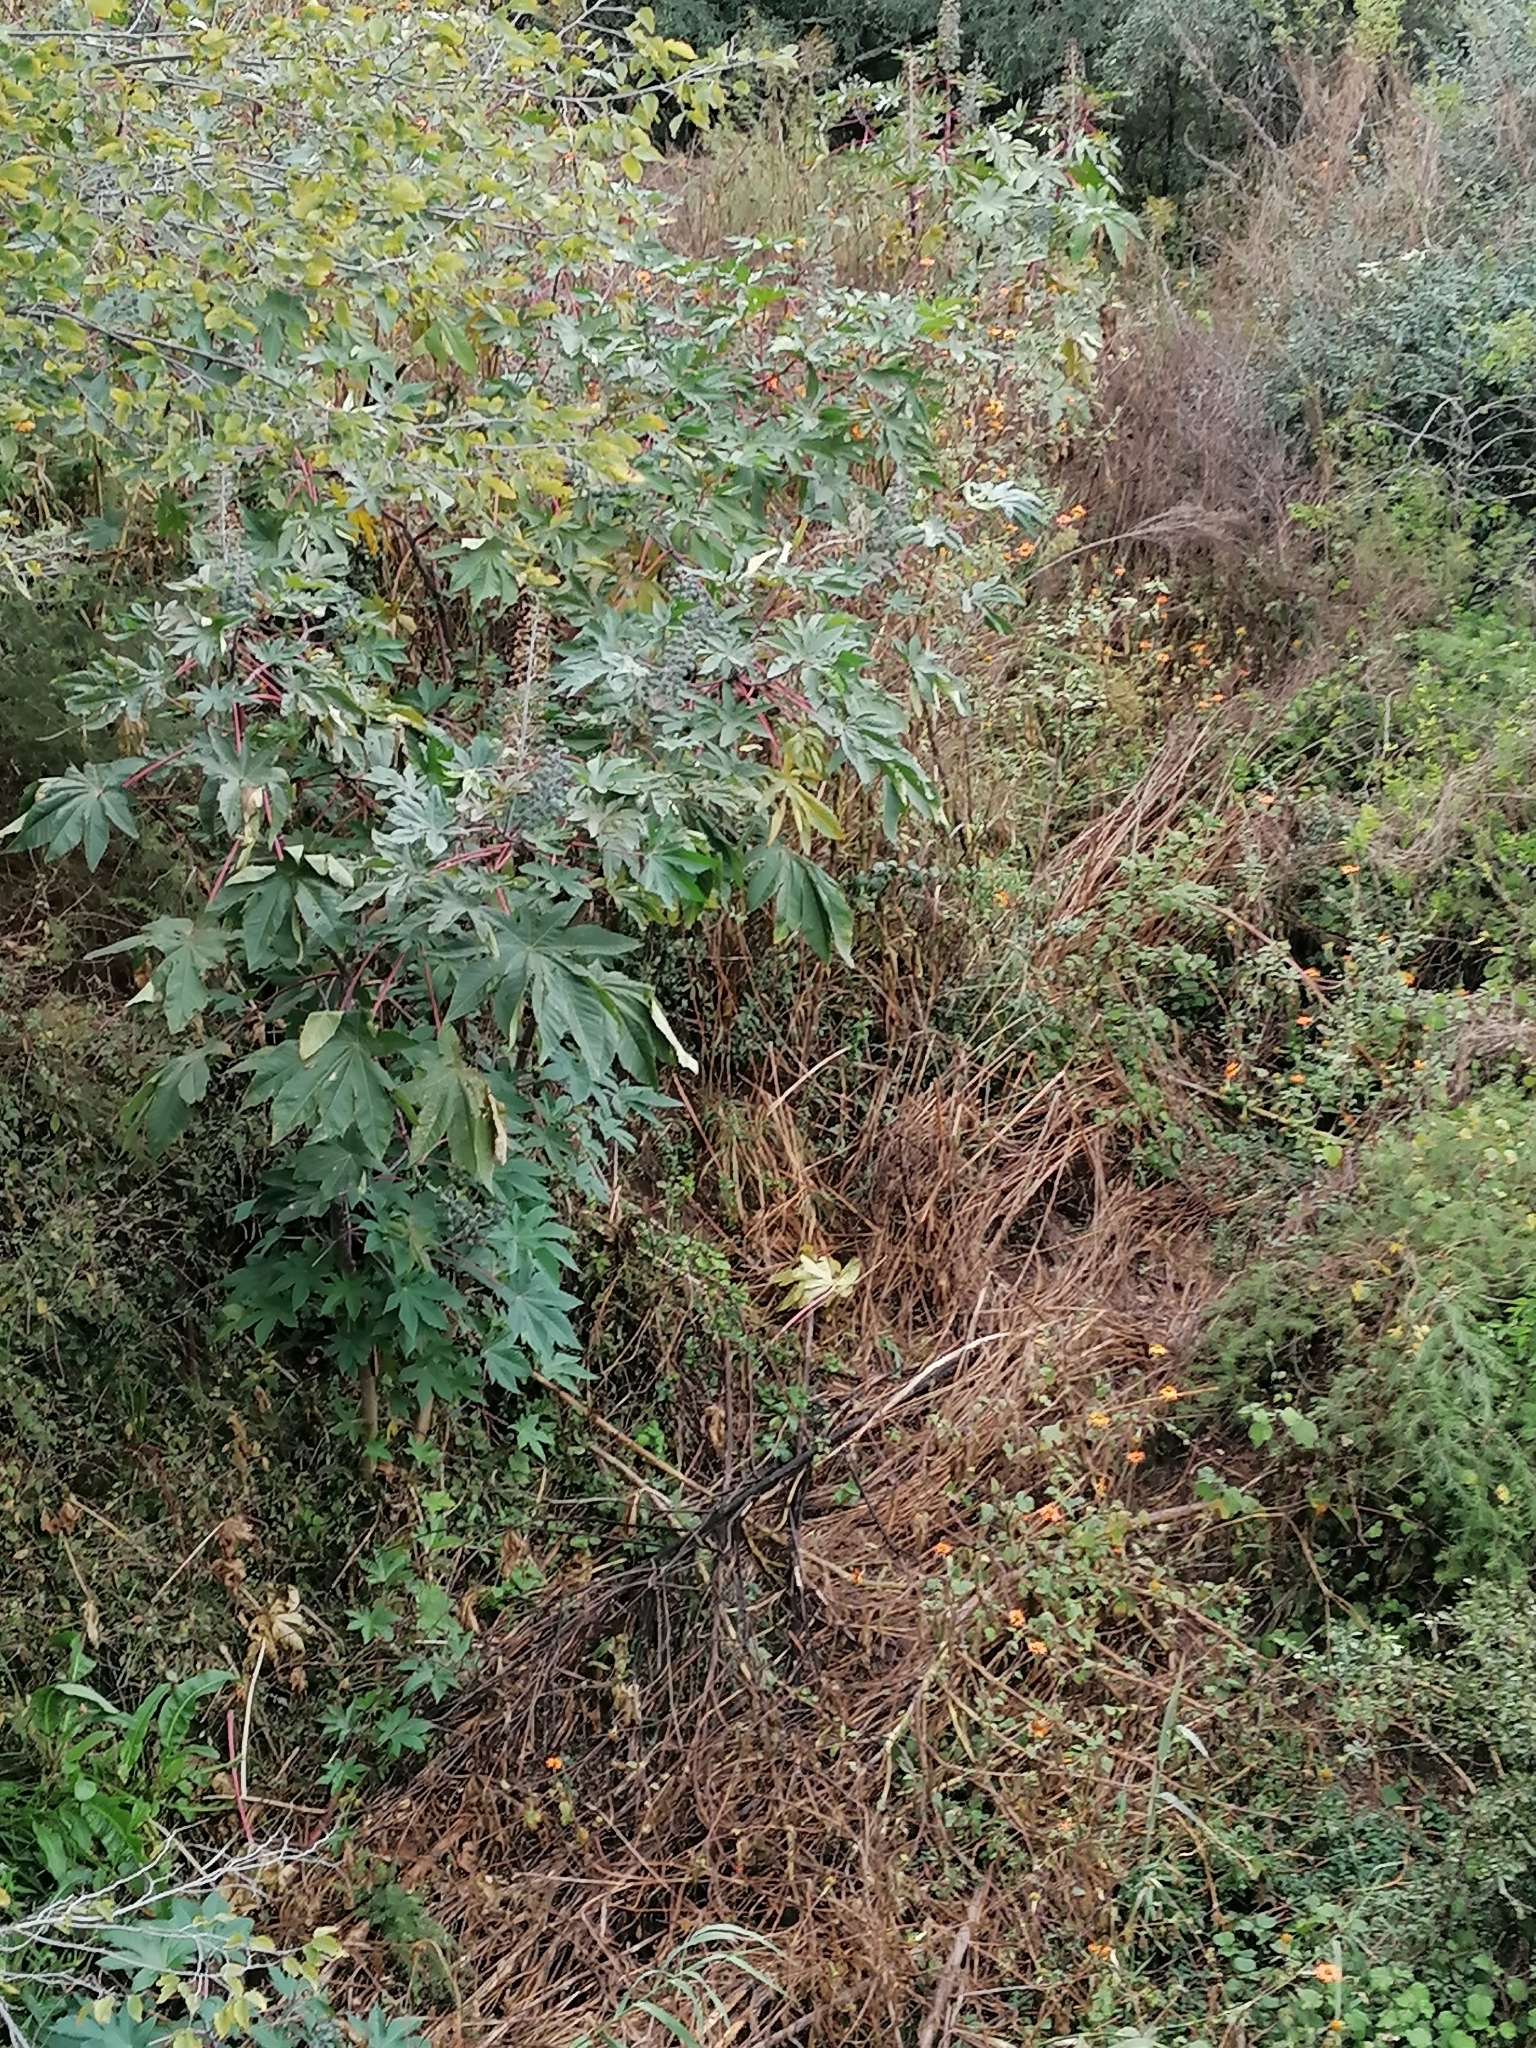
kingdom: Plantae
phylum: Tracheophyta
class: Magnoliopsida
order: Malpighiales
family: Euphorbiaceae
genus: Ricinus
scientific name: Ricinus communis
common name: Castor-oil-plant
